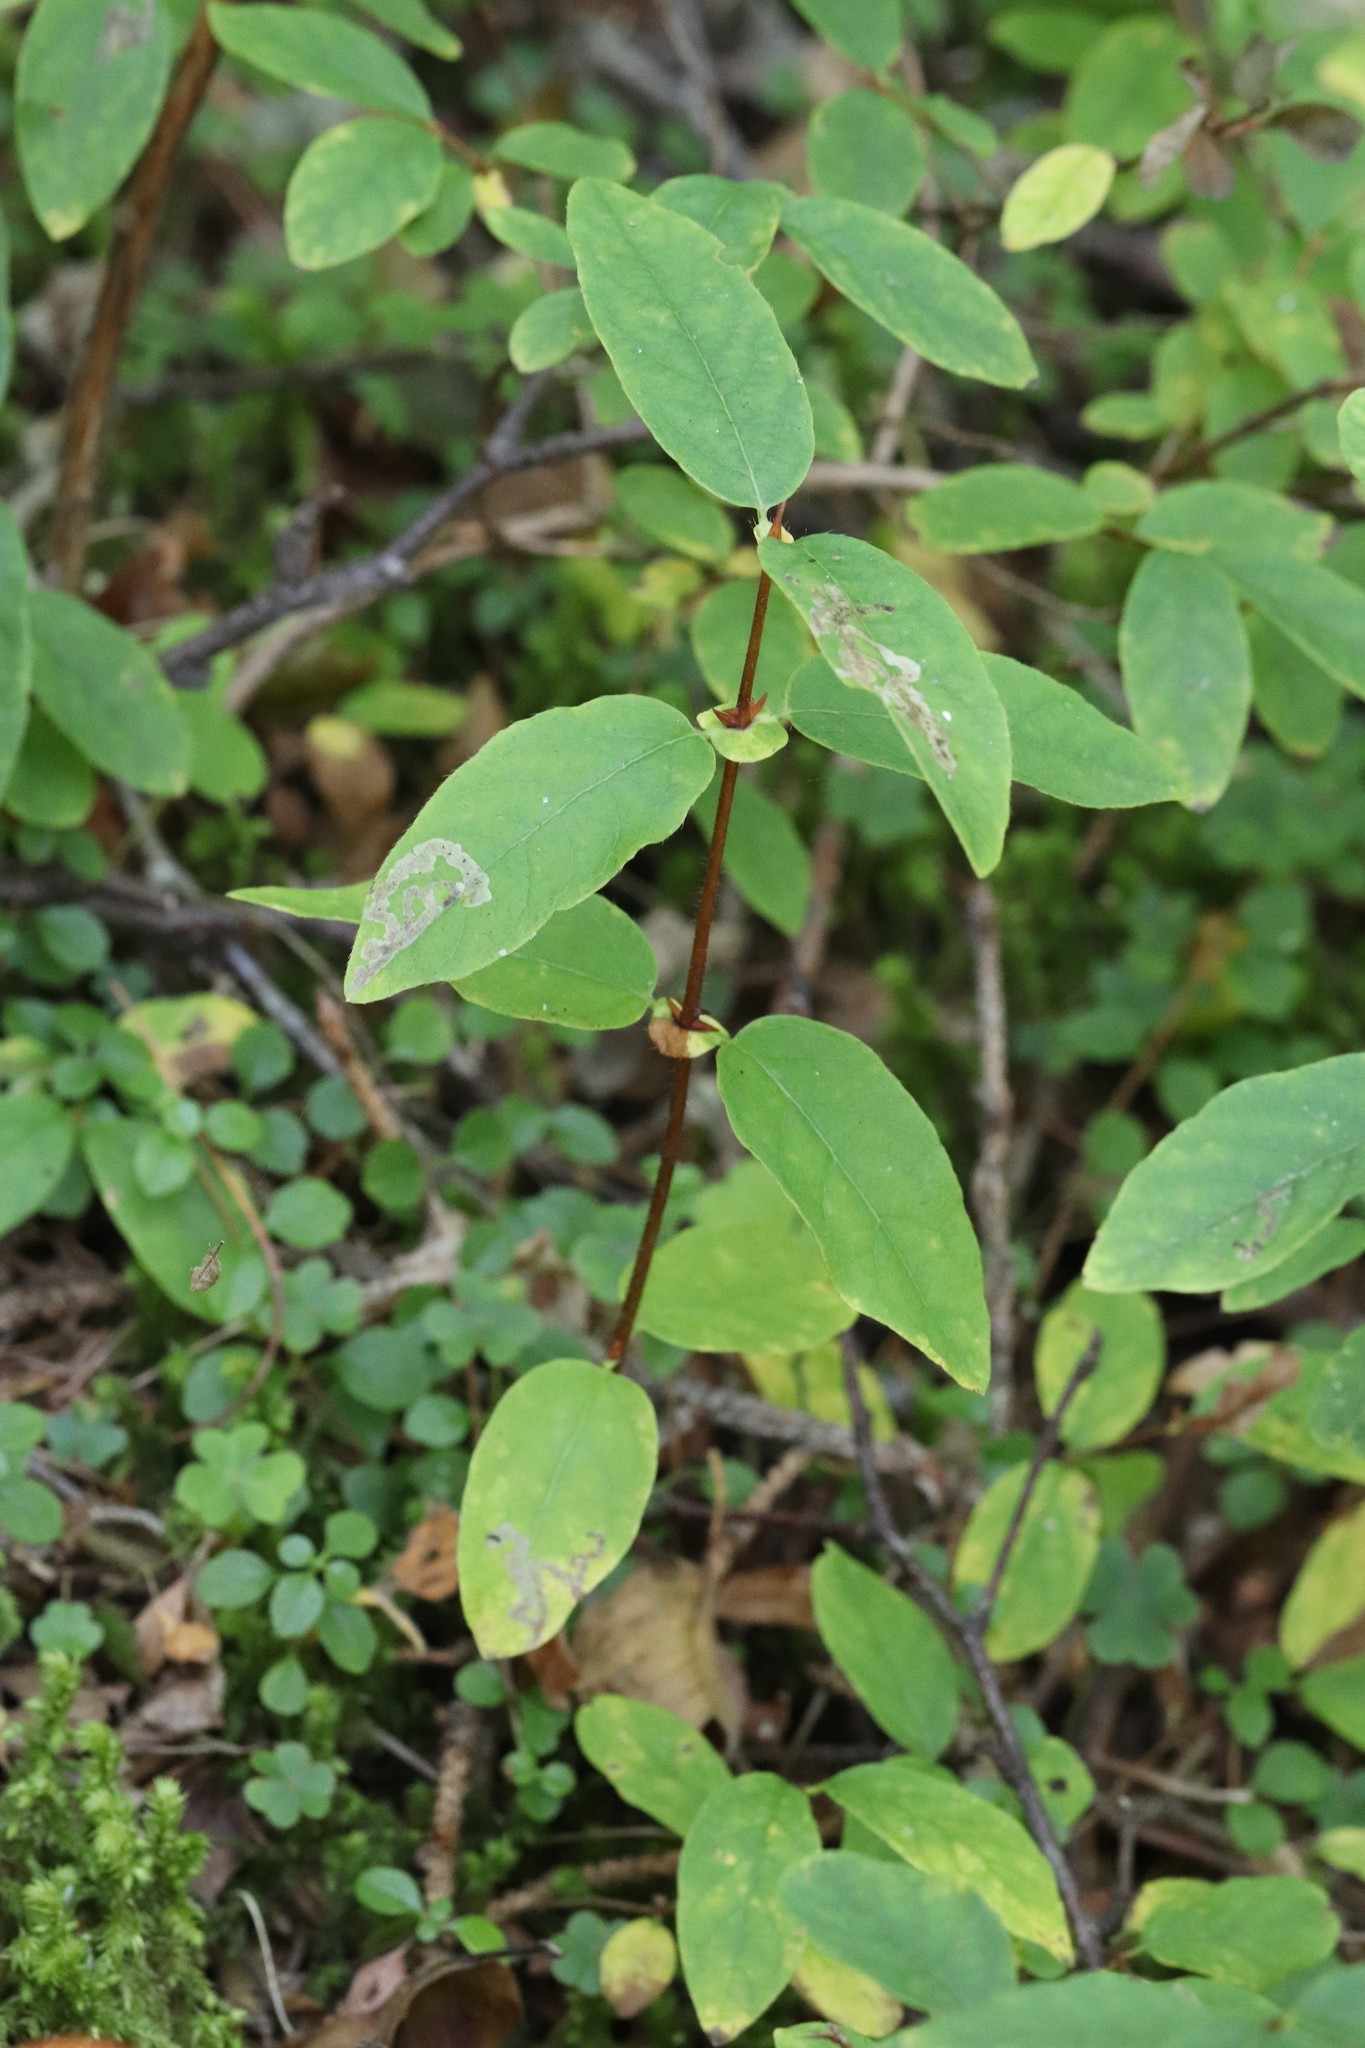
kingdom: Plantae
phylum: Tracheophyta
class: Magnoliopsida
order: Dipsacales
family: Caprifoliaceae
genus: Lonicera
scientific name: Lonicera caerulea
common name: Blue honeysuckle
